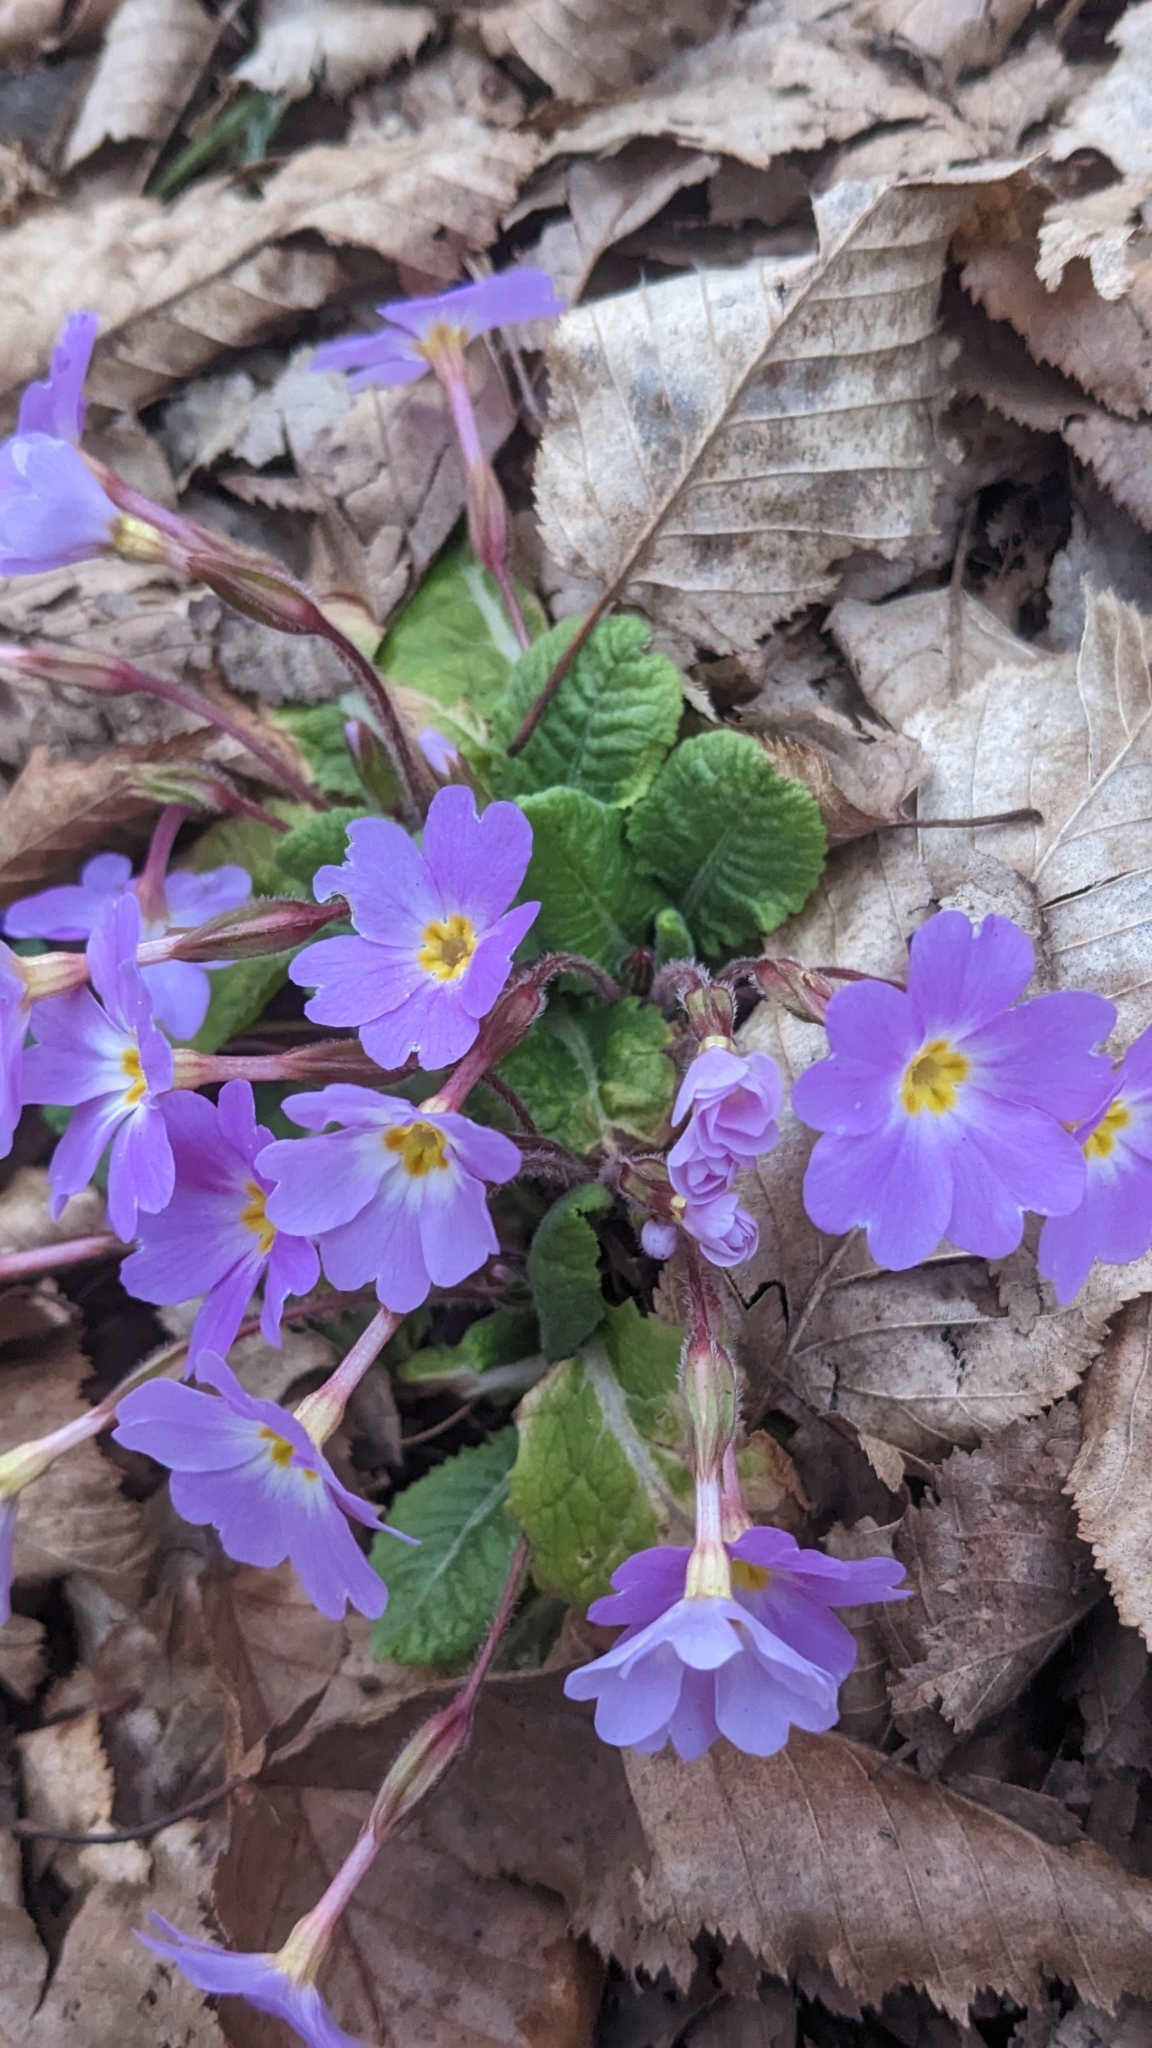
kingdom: Plantae
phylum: Tracheophyta
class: Magnoliopsida
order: Ericales
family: Primulaceae
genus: Primula
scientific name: Primula vulgaris
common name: Primrose
